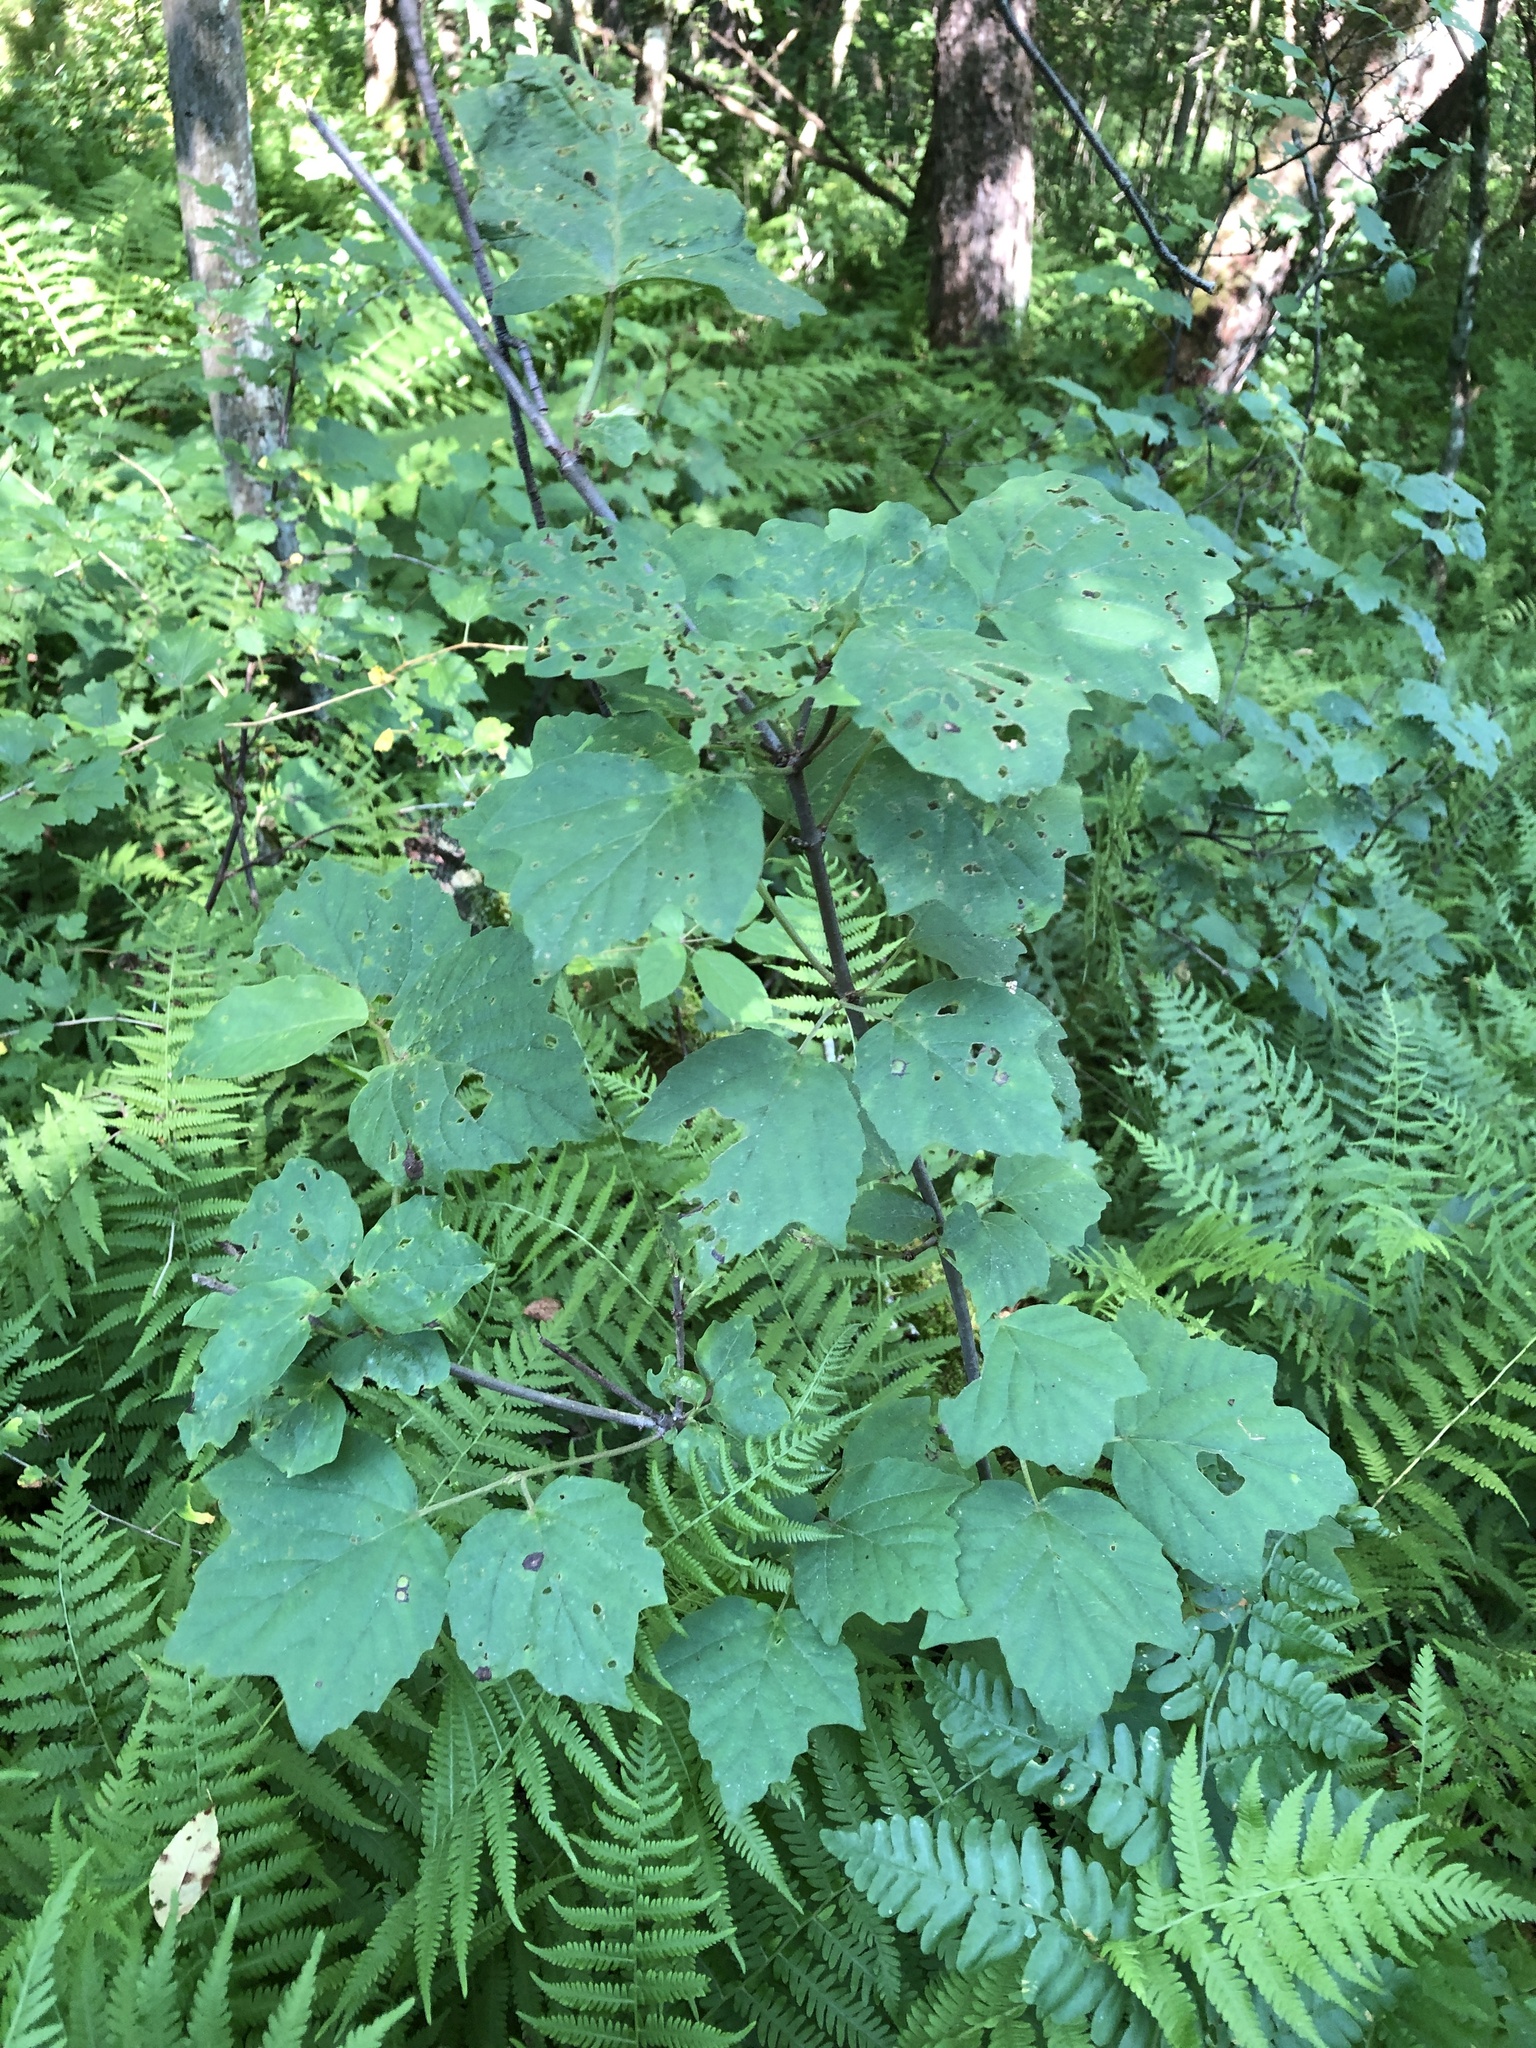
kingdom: Plantae
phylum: Tracheophyta
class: Magnoliopsida
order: Dipsacales
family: Viburnaceae
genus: Viburnum
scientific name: Viburnum acerifolium
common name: Dockmackie
